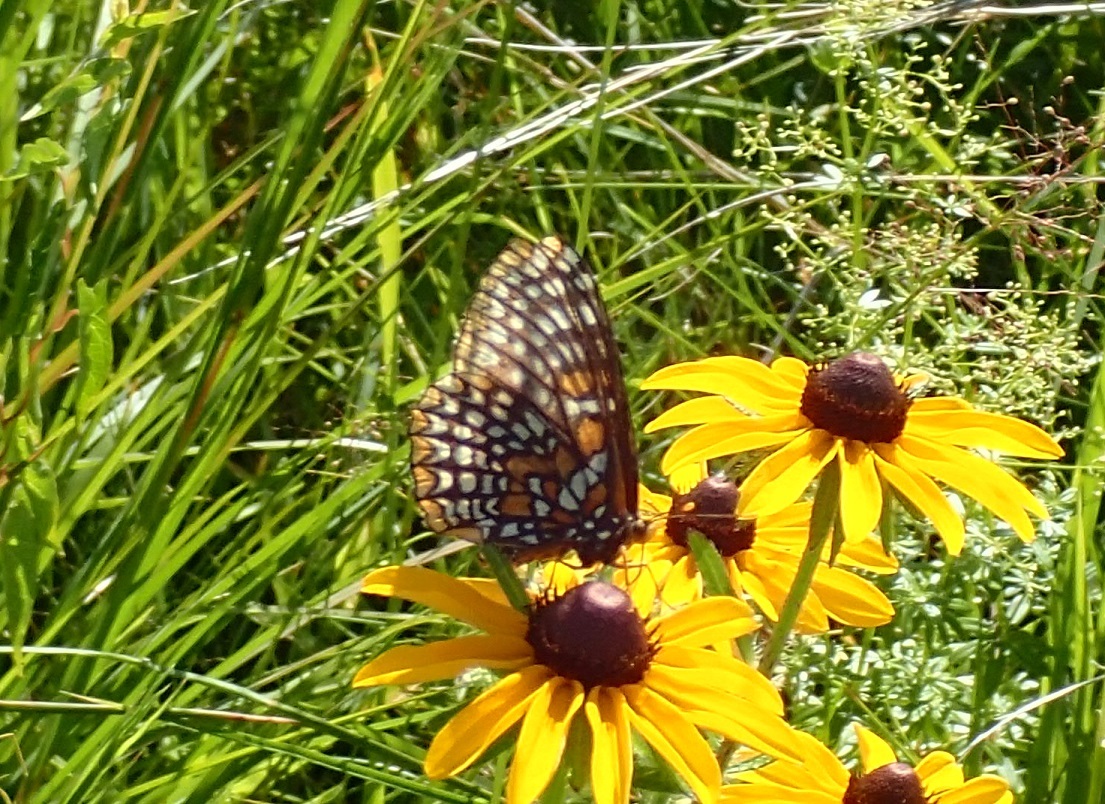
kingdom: Animalia
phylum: Arthropoda
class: Insecta
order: Lepidoptera
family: Nymphalidae
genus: Euphydryas
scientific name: Euphydryas phaeton
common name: Baltimore checkerspot
